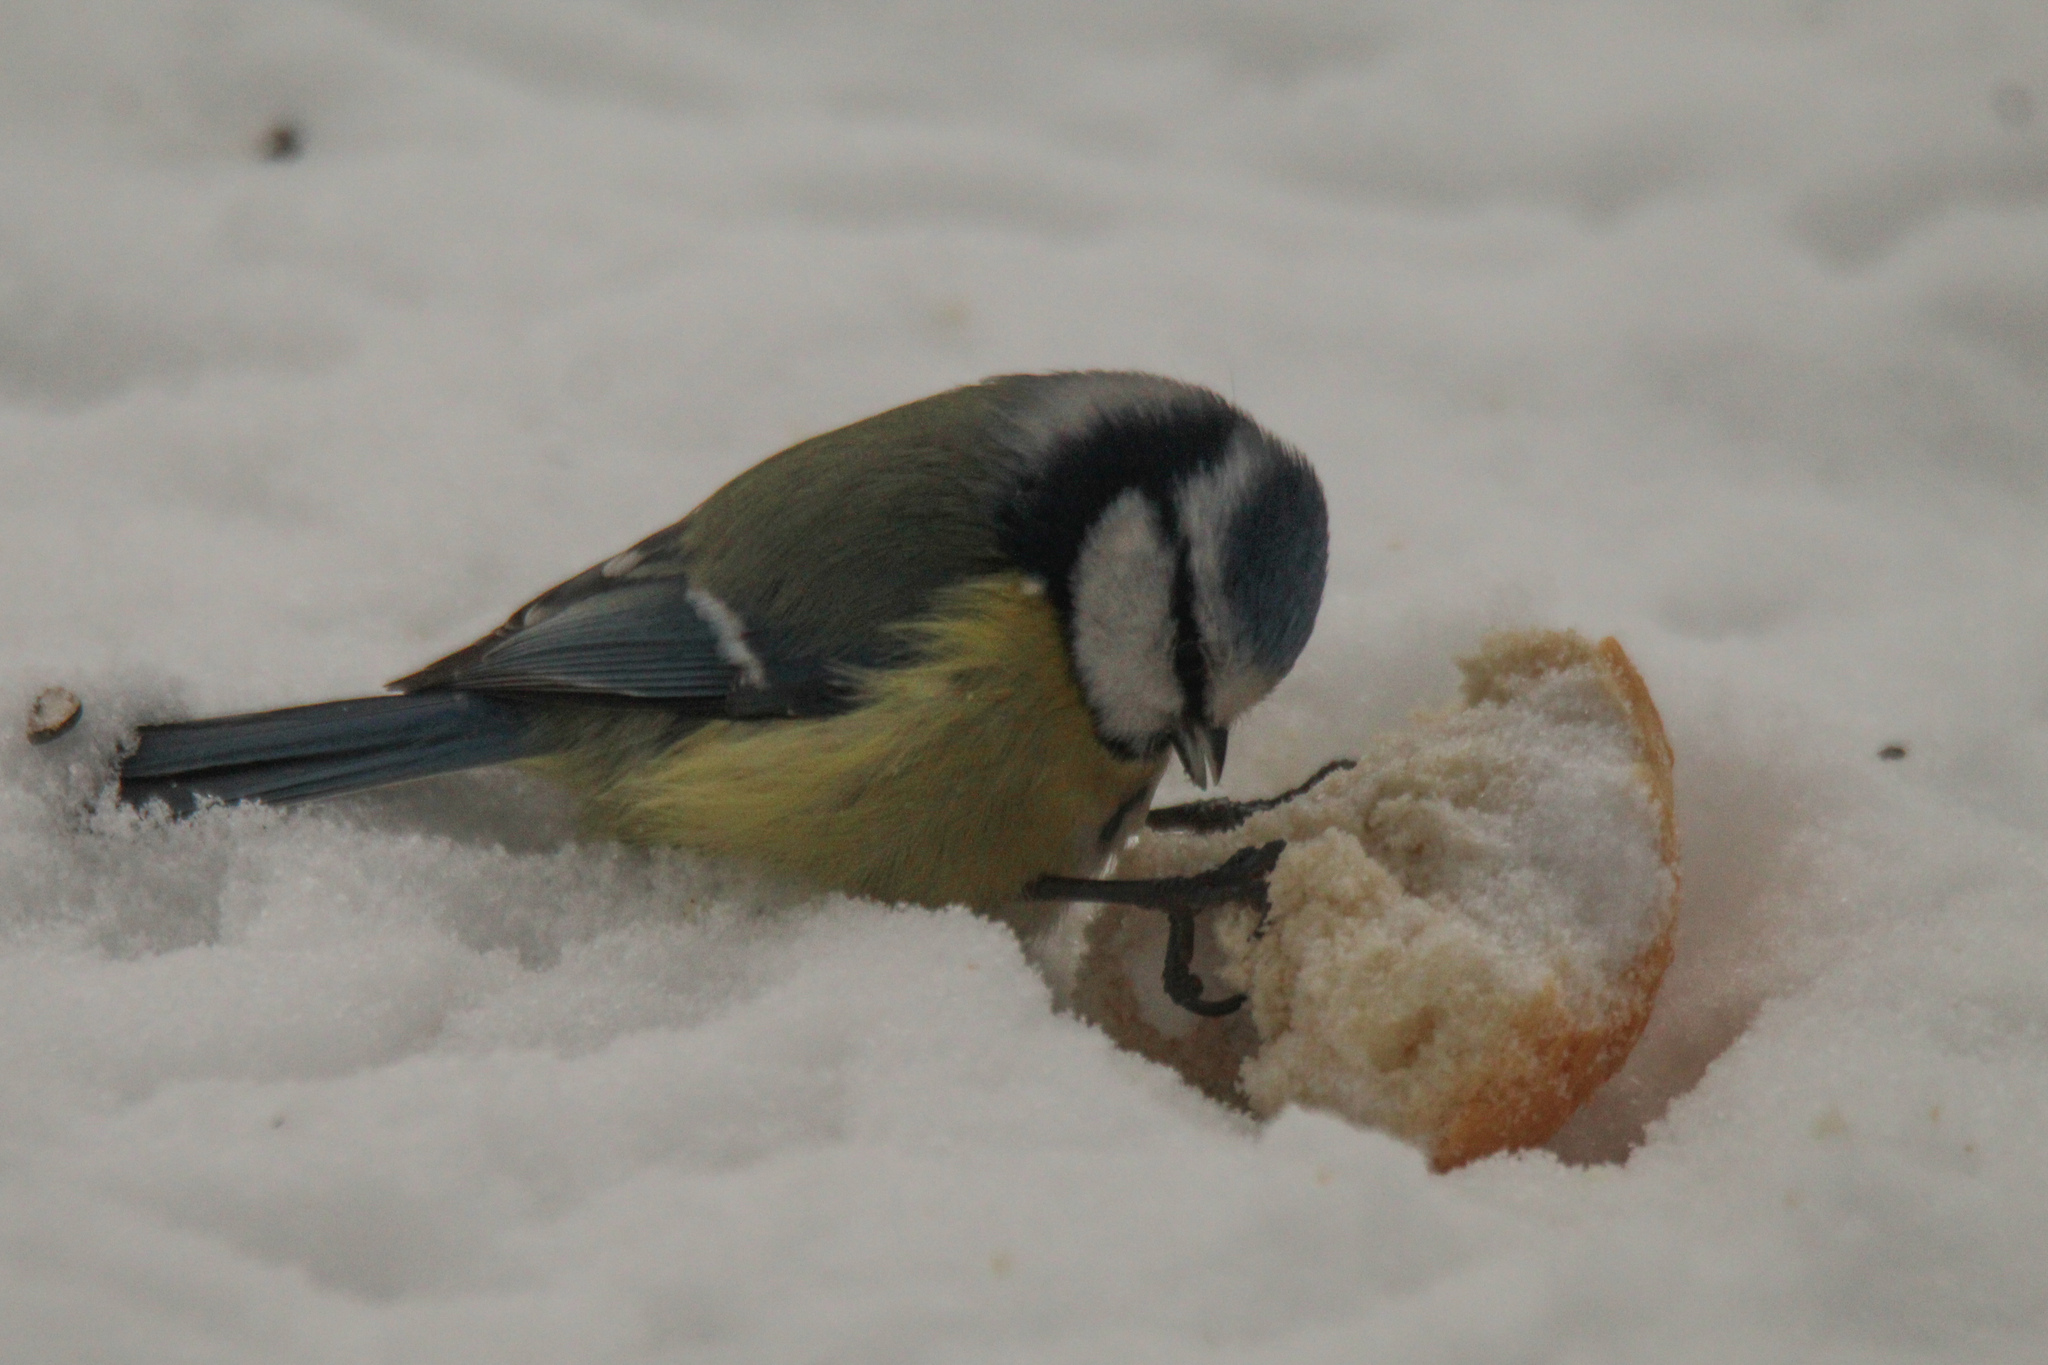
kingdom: Animalia
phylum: Chordata
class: Aves
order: Passeriformes
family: Paridae
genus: Cyanistes
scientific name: Cyanistes caeruleus
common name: Eurasian blue tit
